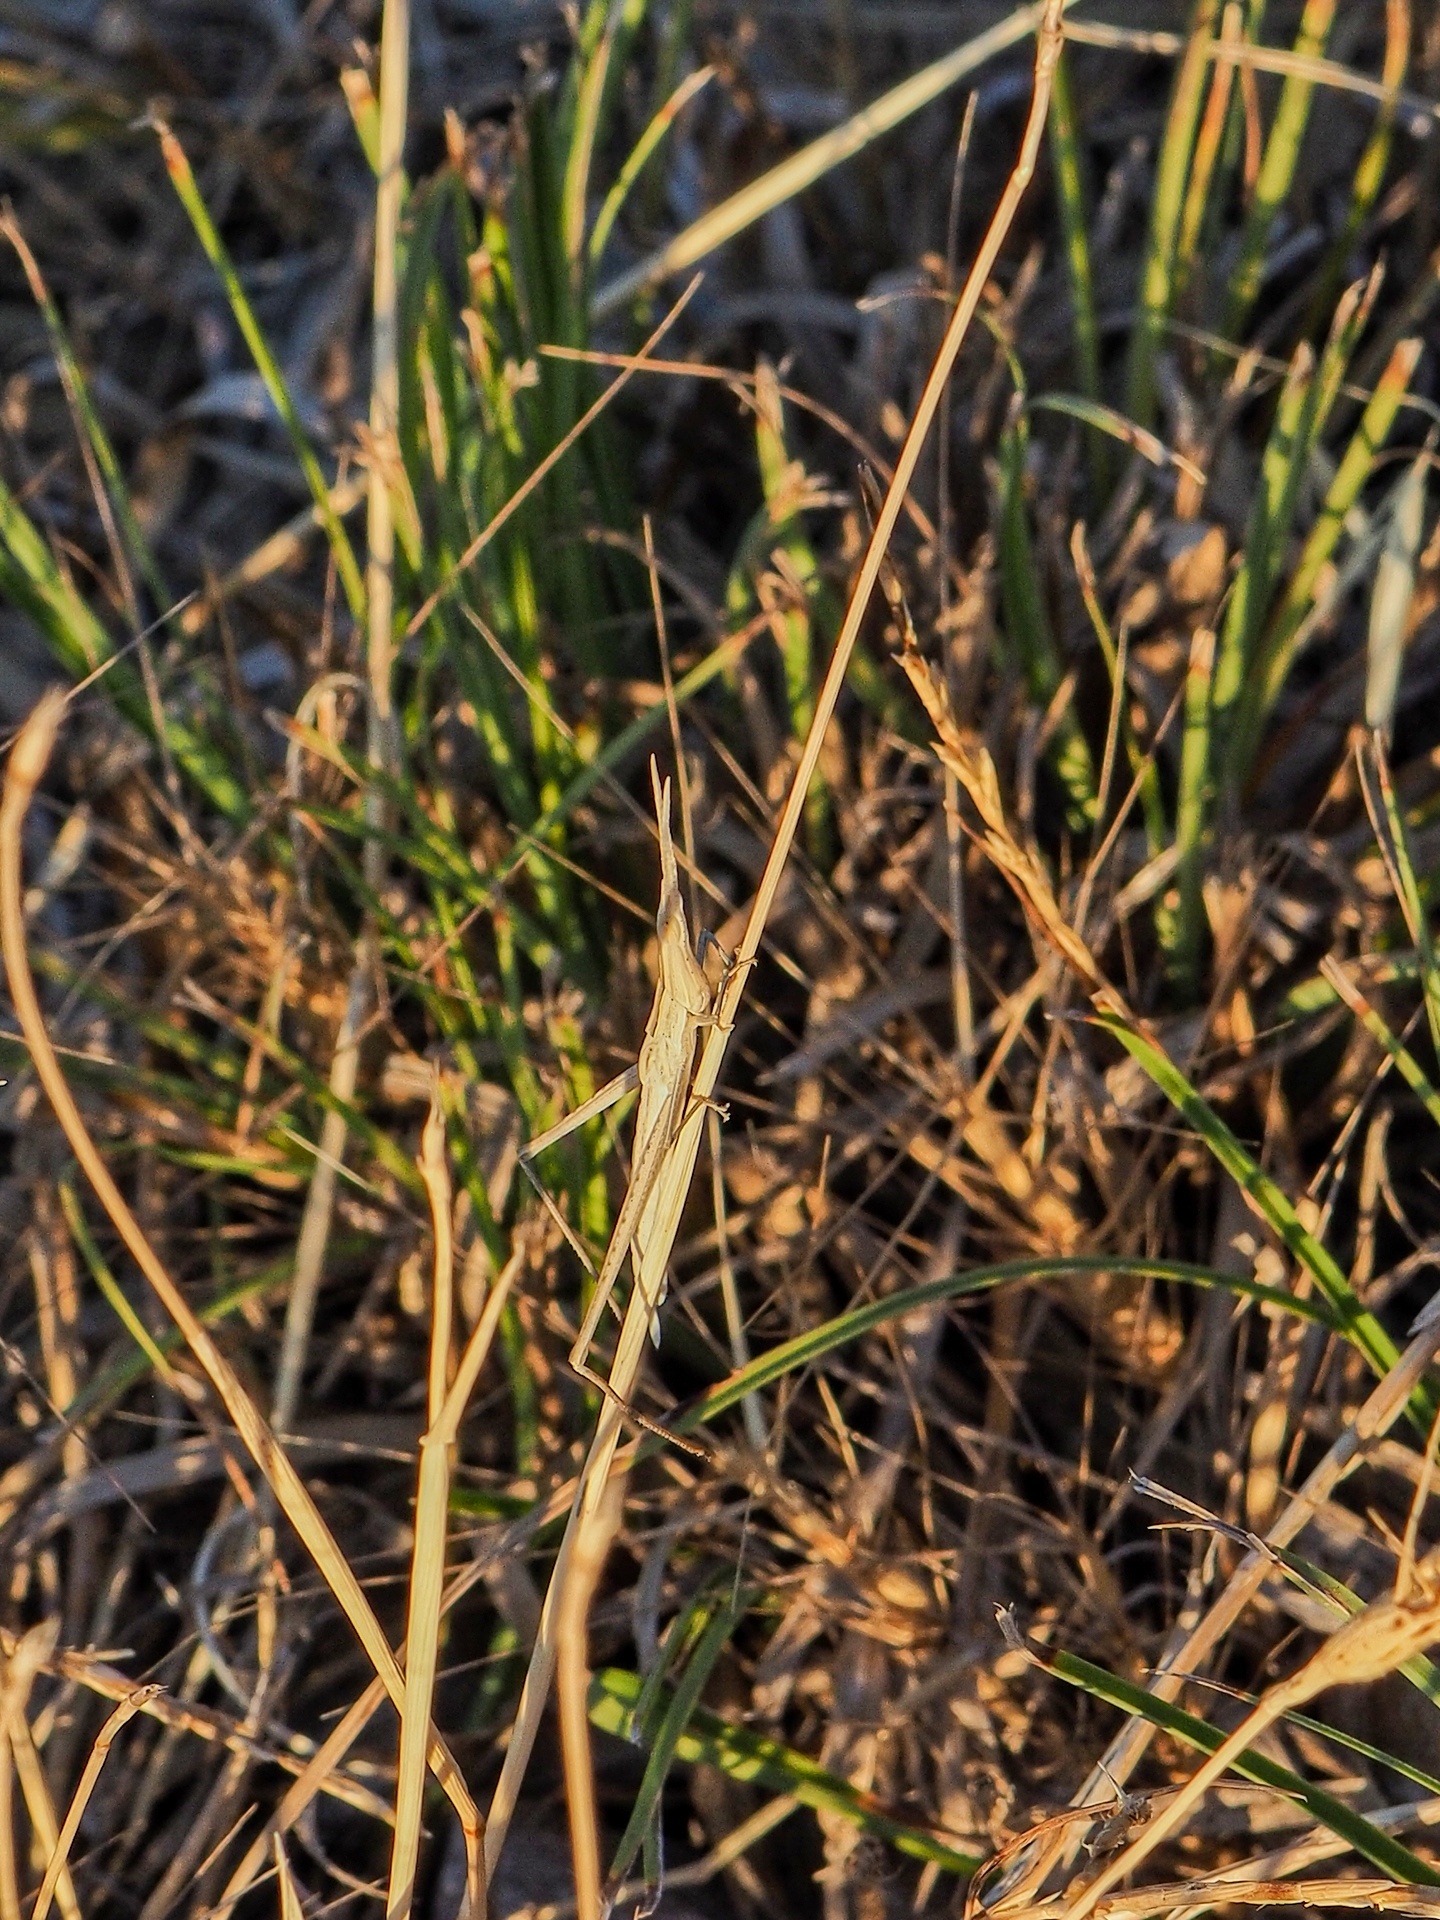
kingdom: Animalia
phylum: Arthropoda
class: Insecta
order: Orthoptera
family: Acrididae
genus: Acrida
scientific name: Acrida ungarica
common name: Common cone-headed grasshopper
